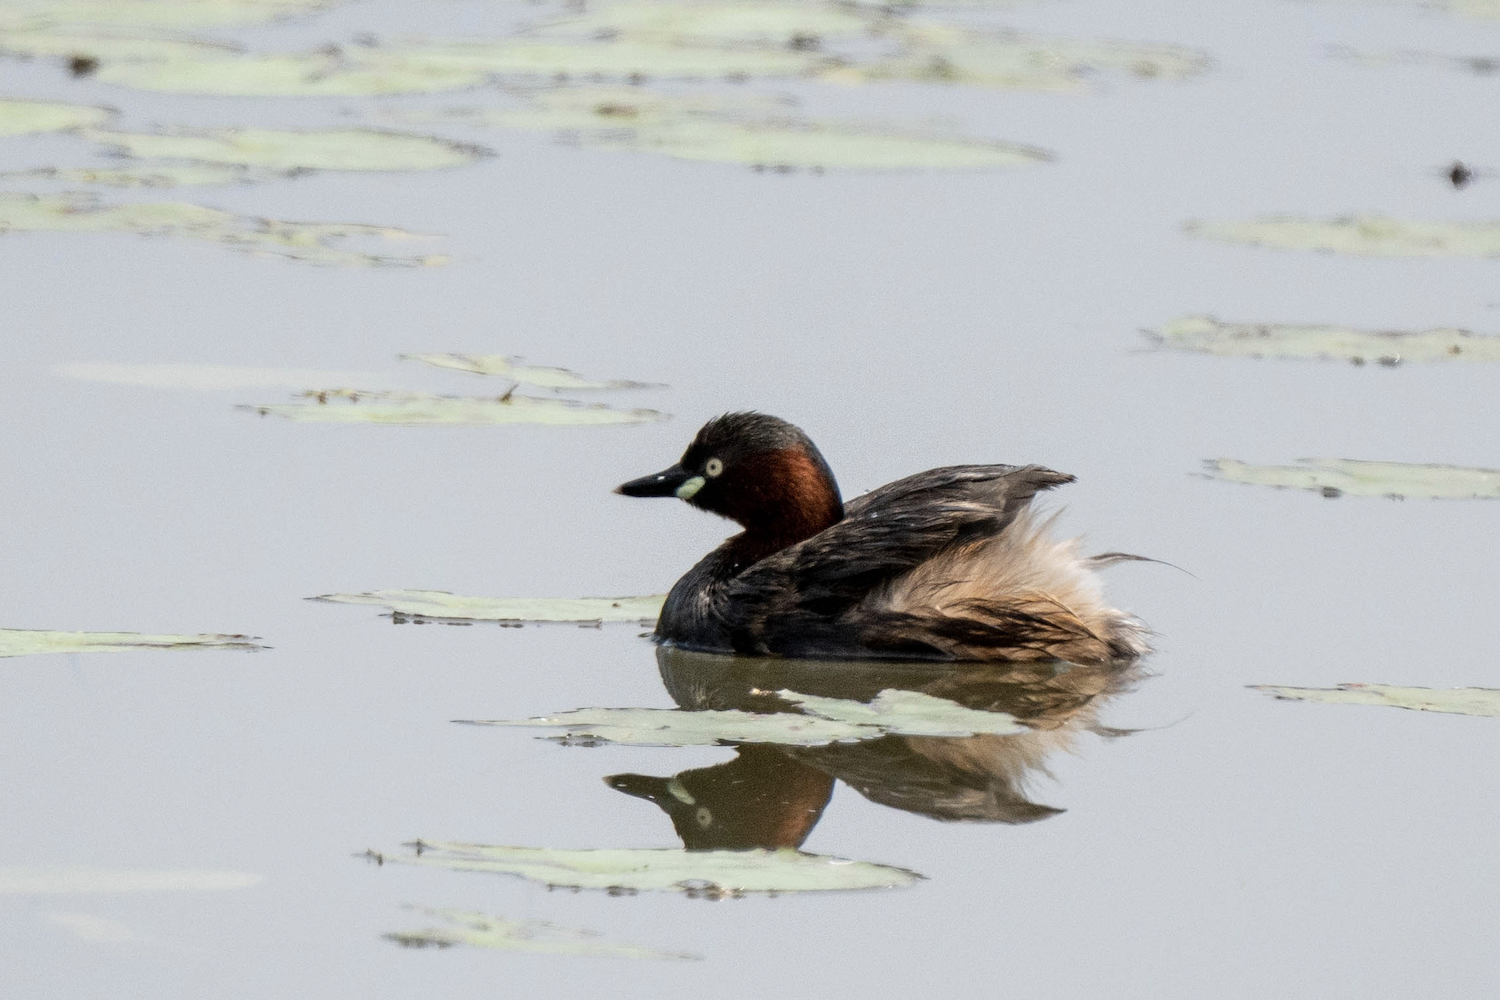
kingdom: Animalia
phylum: Chordata
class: Aves
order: Podicipediformes
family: Podicipedidae
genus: Tachybaptus
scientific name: Tachybaptus ruficollis
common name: Little grebe
